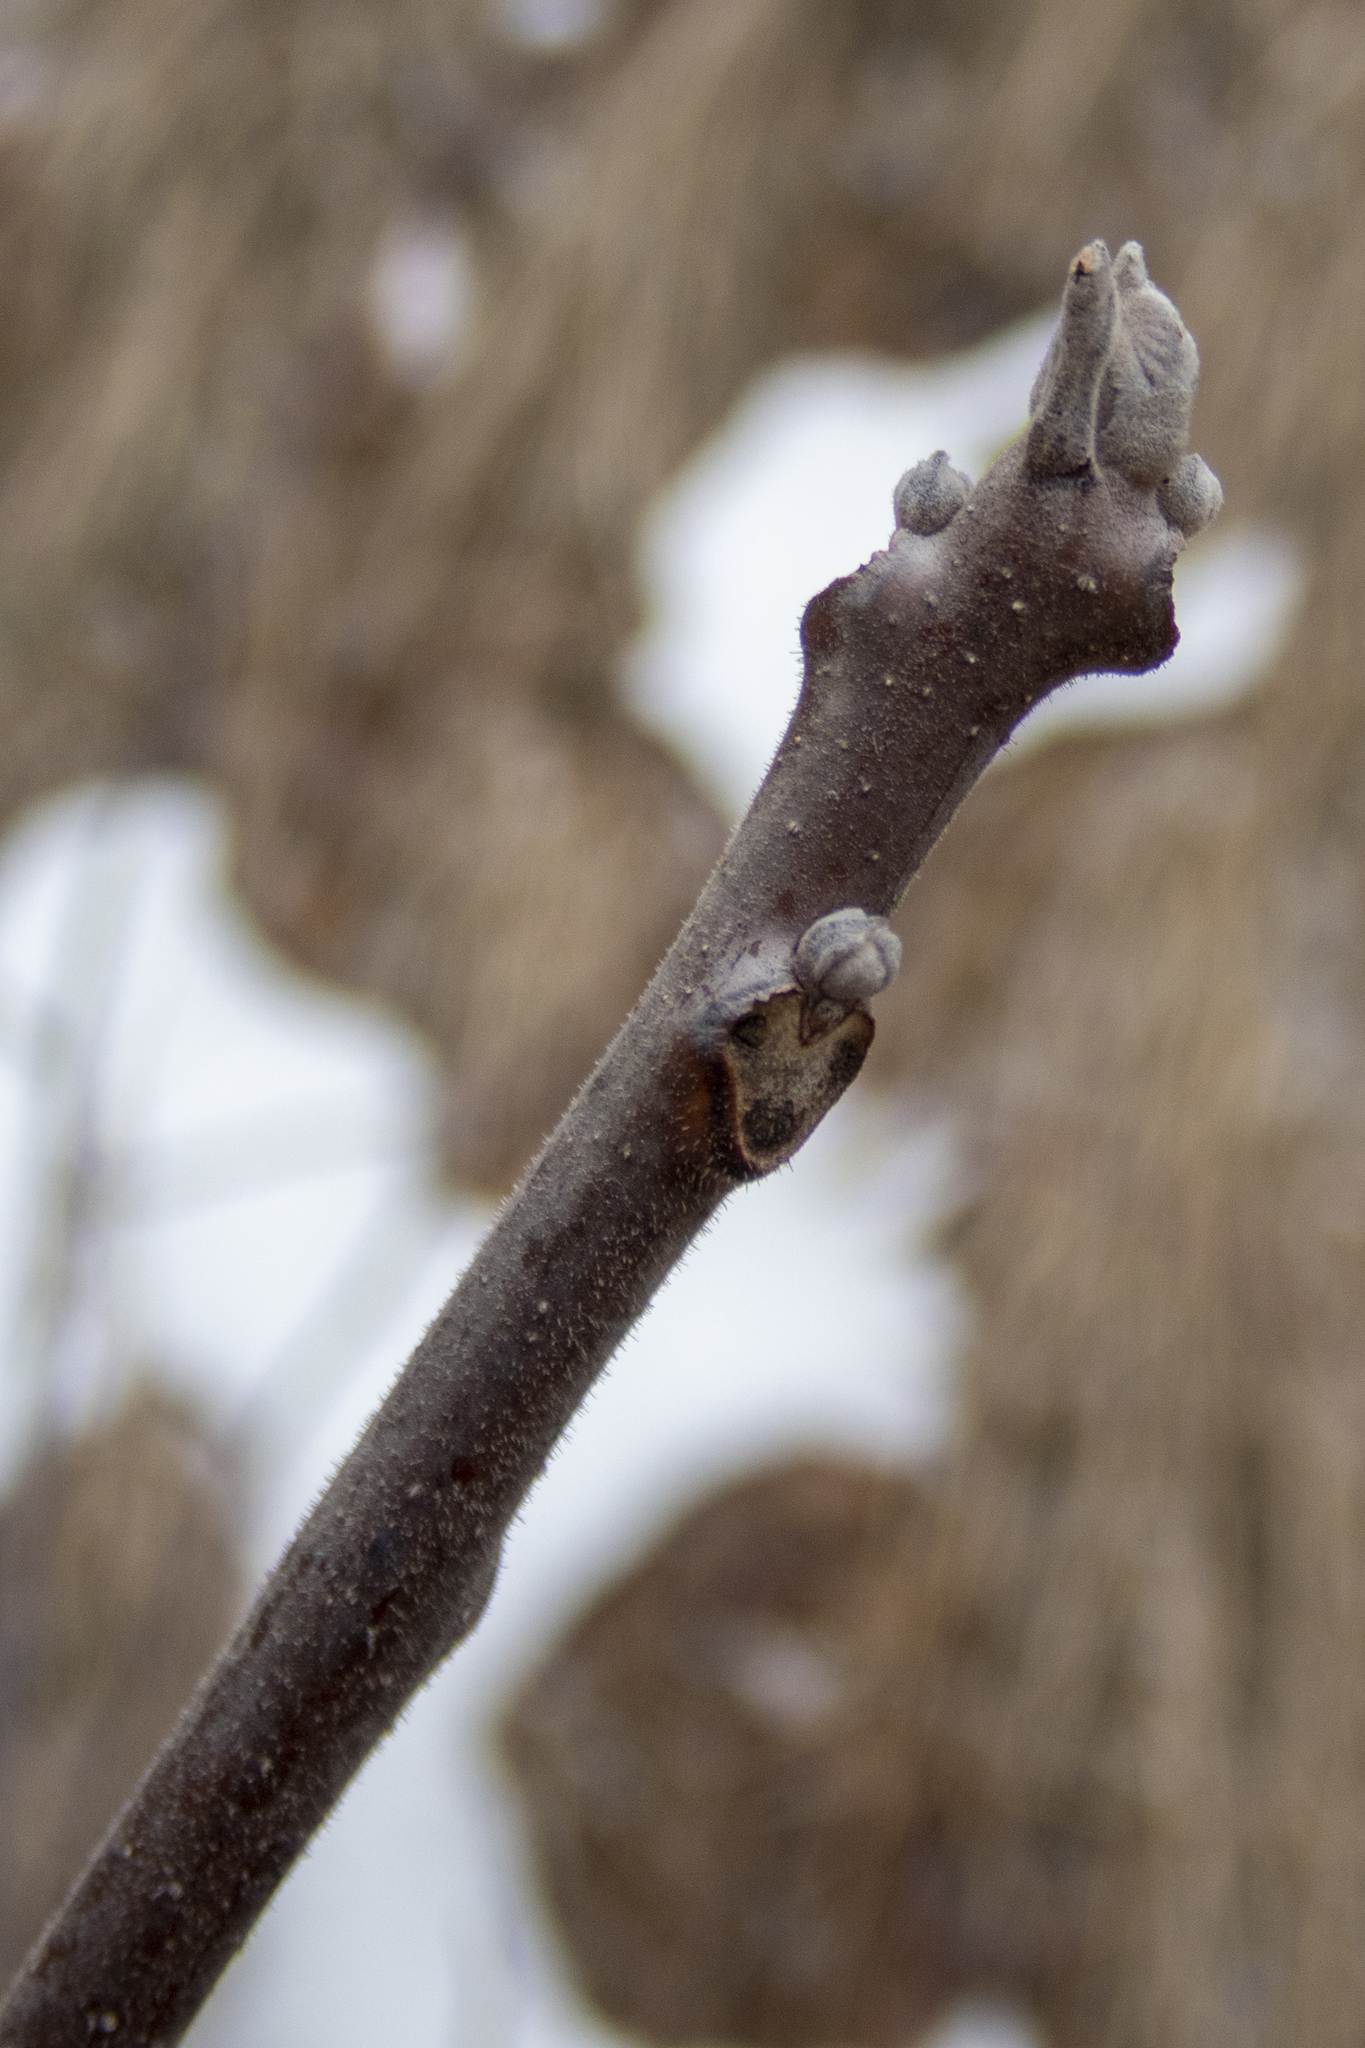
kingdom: Plantae
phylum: Tracheophyta
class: Magnoliopsida
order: Fagales
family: Juglandaceae
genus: Juglans
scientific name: Juglans nigra
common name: Black walnut
